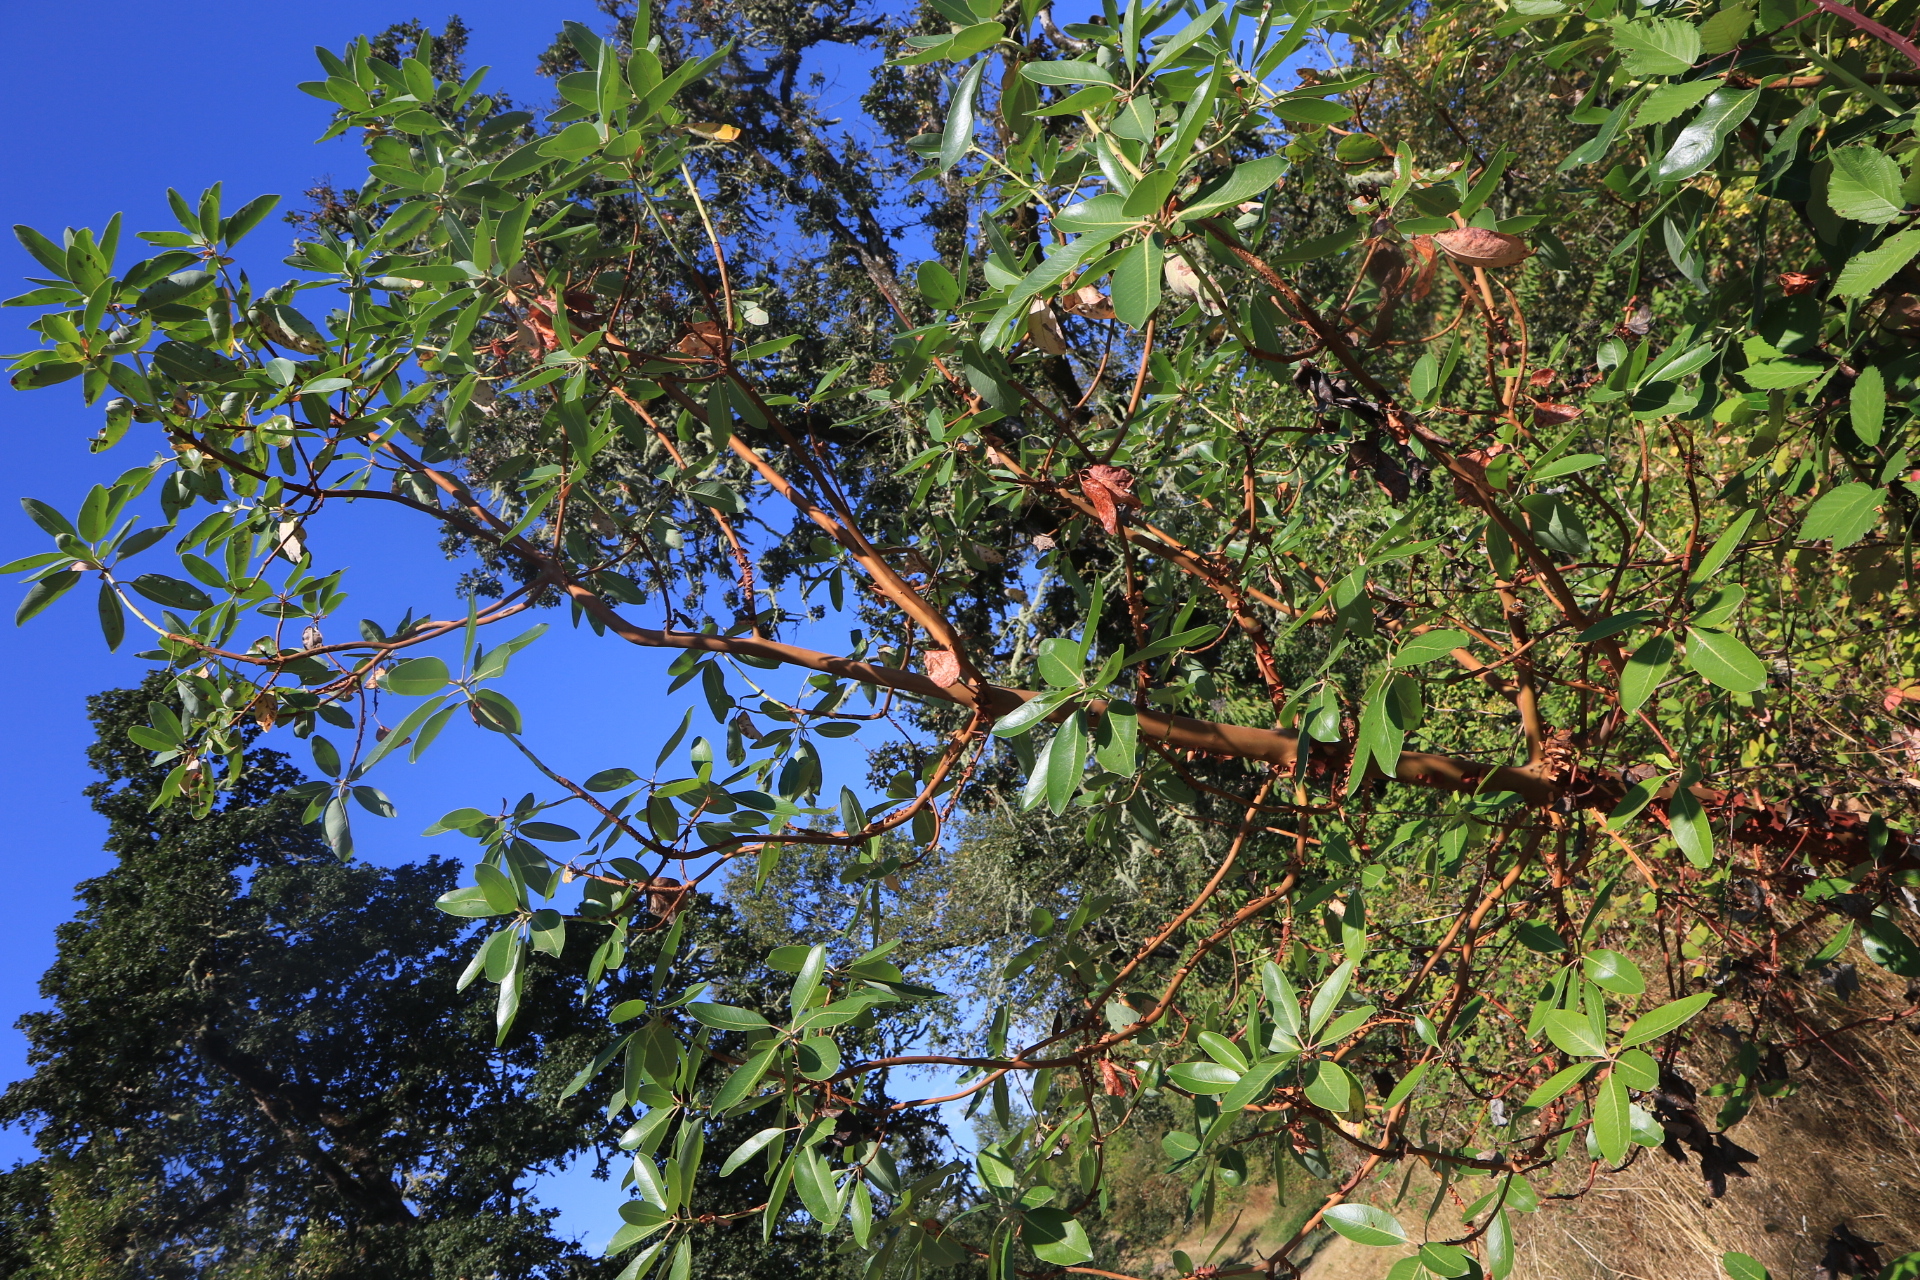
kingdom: Plantae
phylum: Tracheophyta
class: Magnoliopsida
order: Ericales
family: Ericaceae
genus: Arbutus
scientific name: Arbutus menziesii
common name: Pacific madrone
